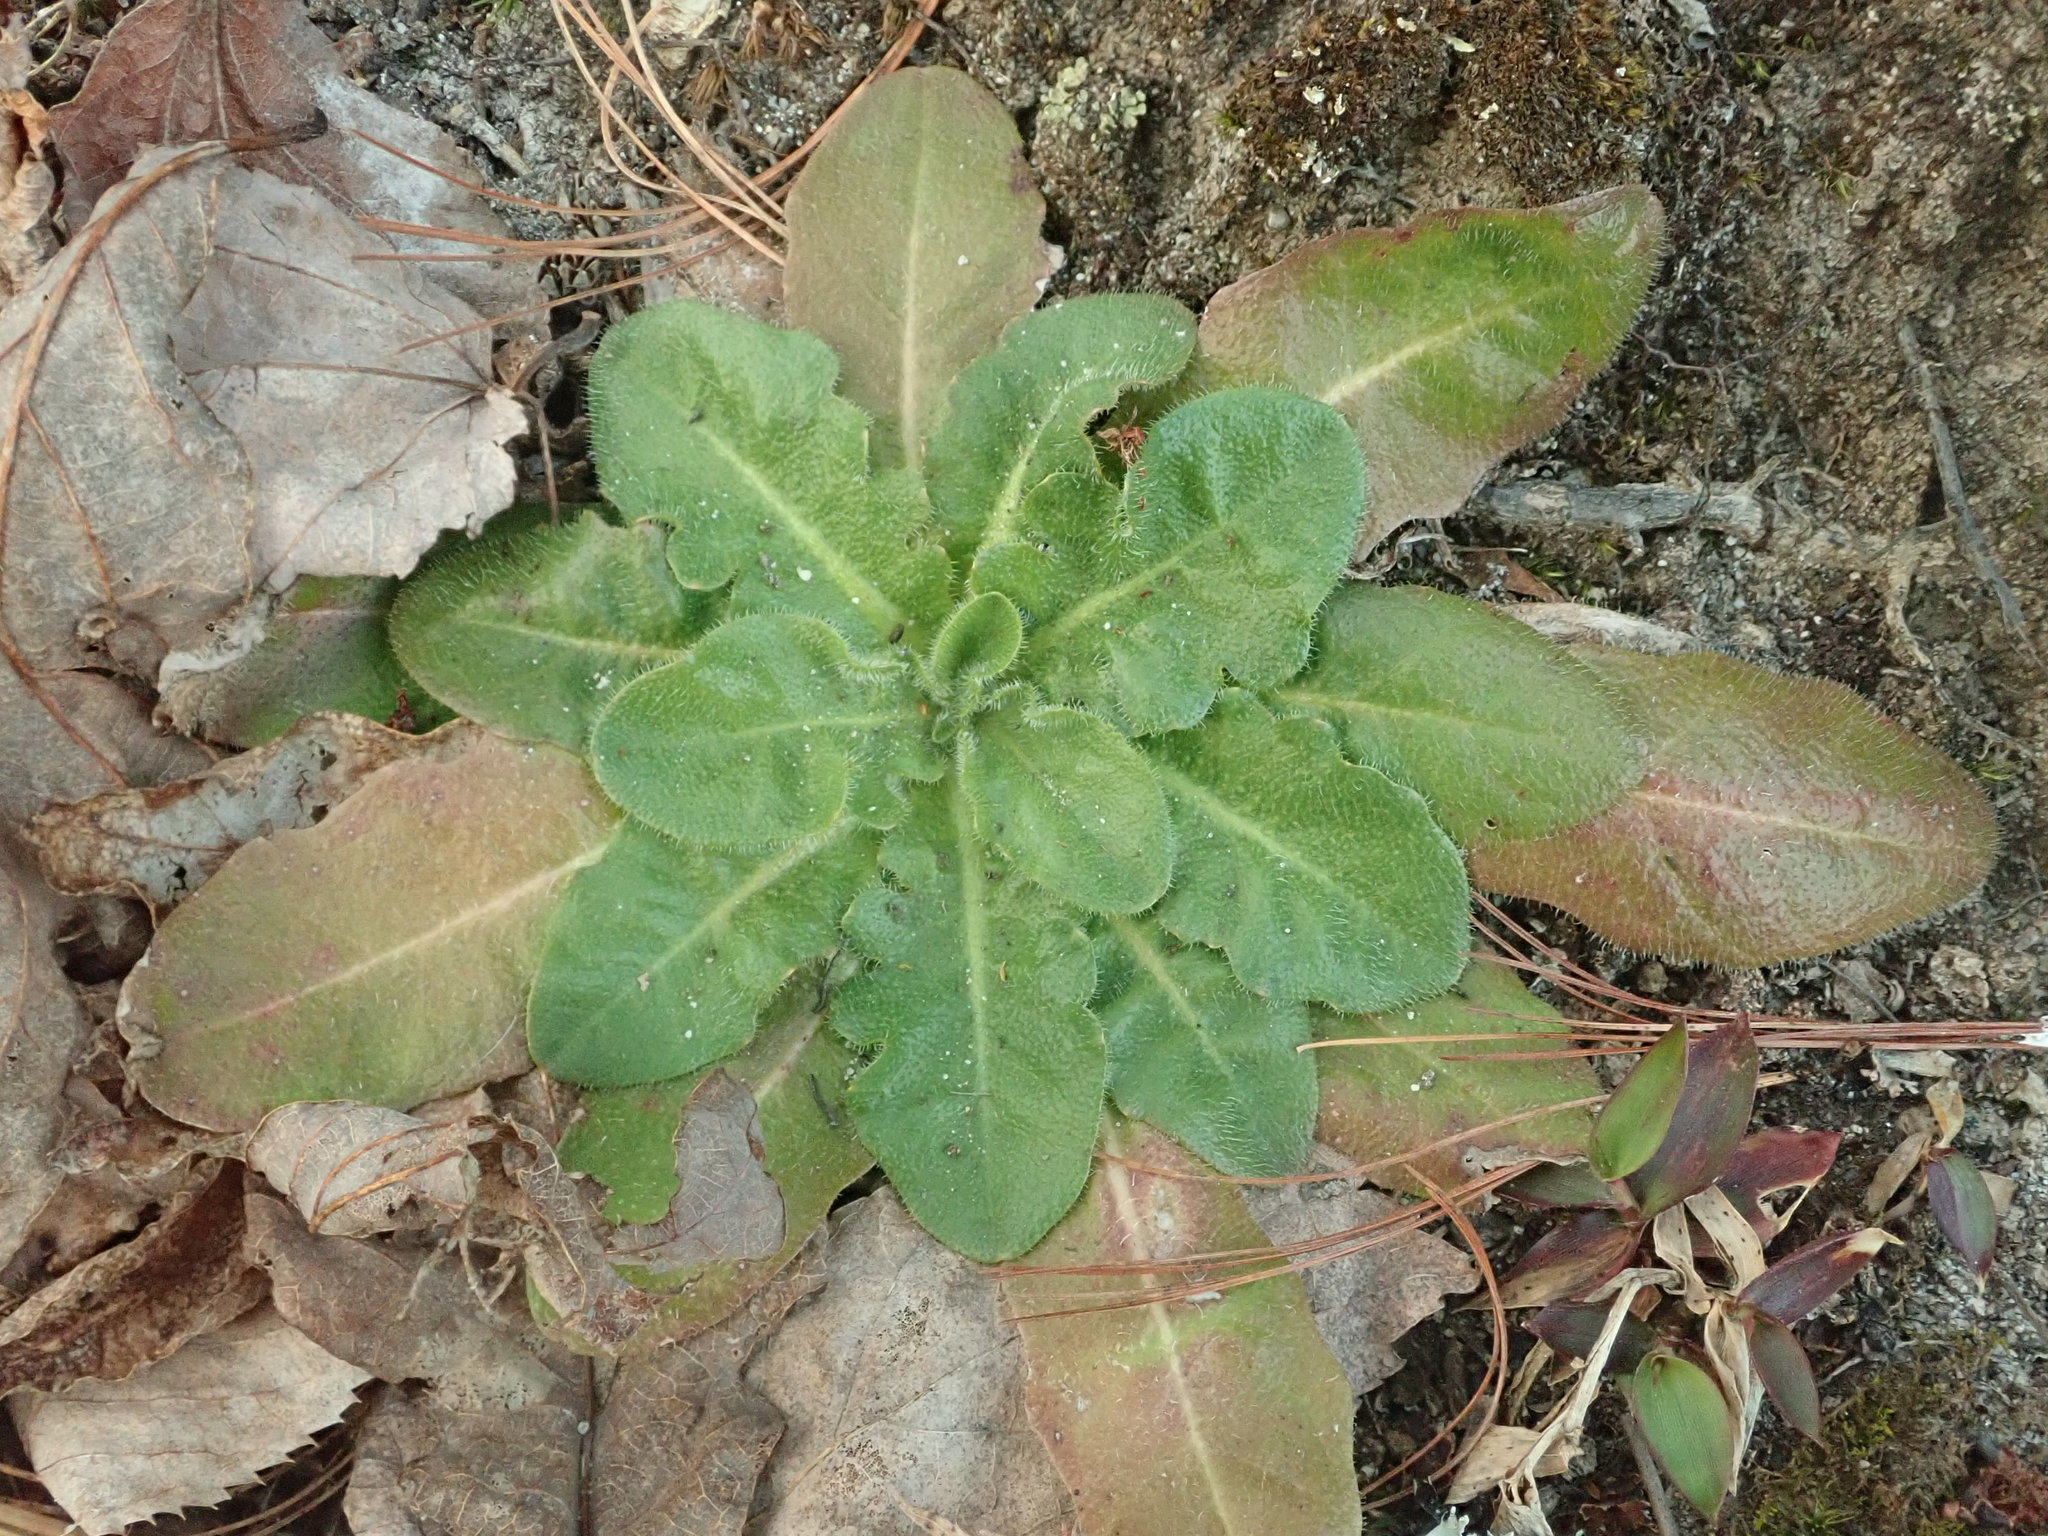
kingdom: Plantae
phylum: Tracheophyta
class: Magnoliopsida
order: Asterales
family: Asteraceae
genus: Hypochaeris
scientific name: Hypochaeris radicata
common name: Flatweed
